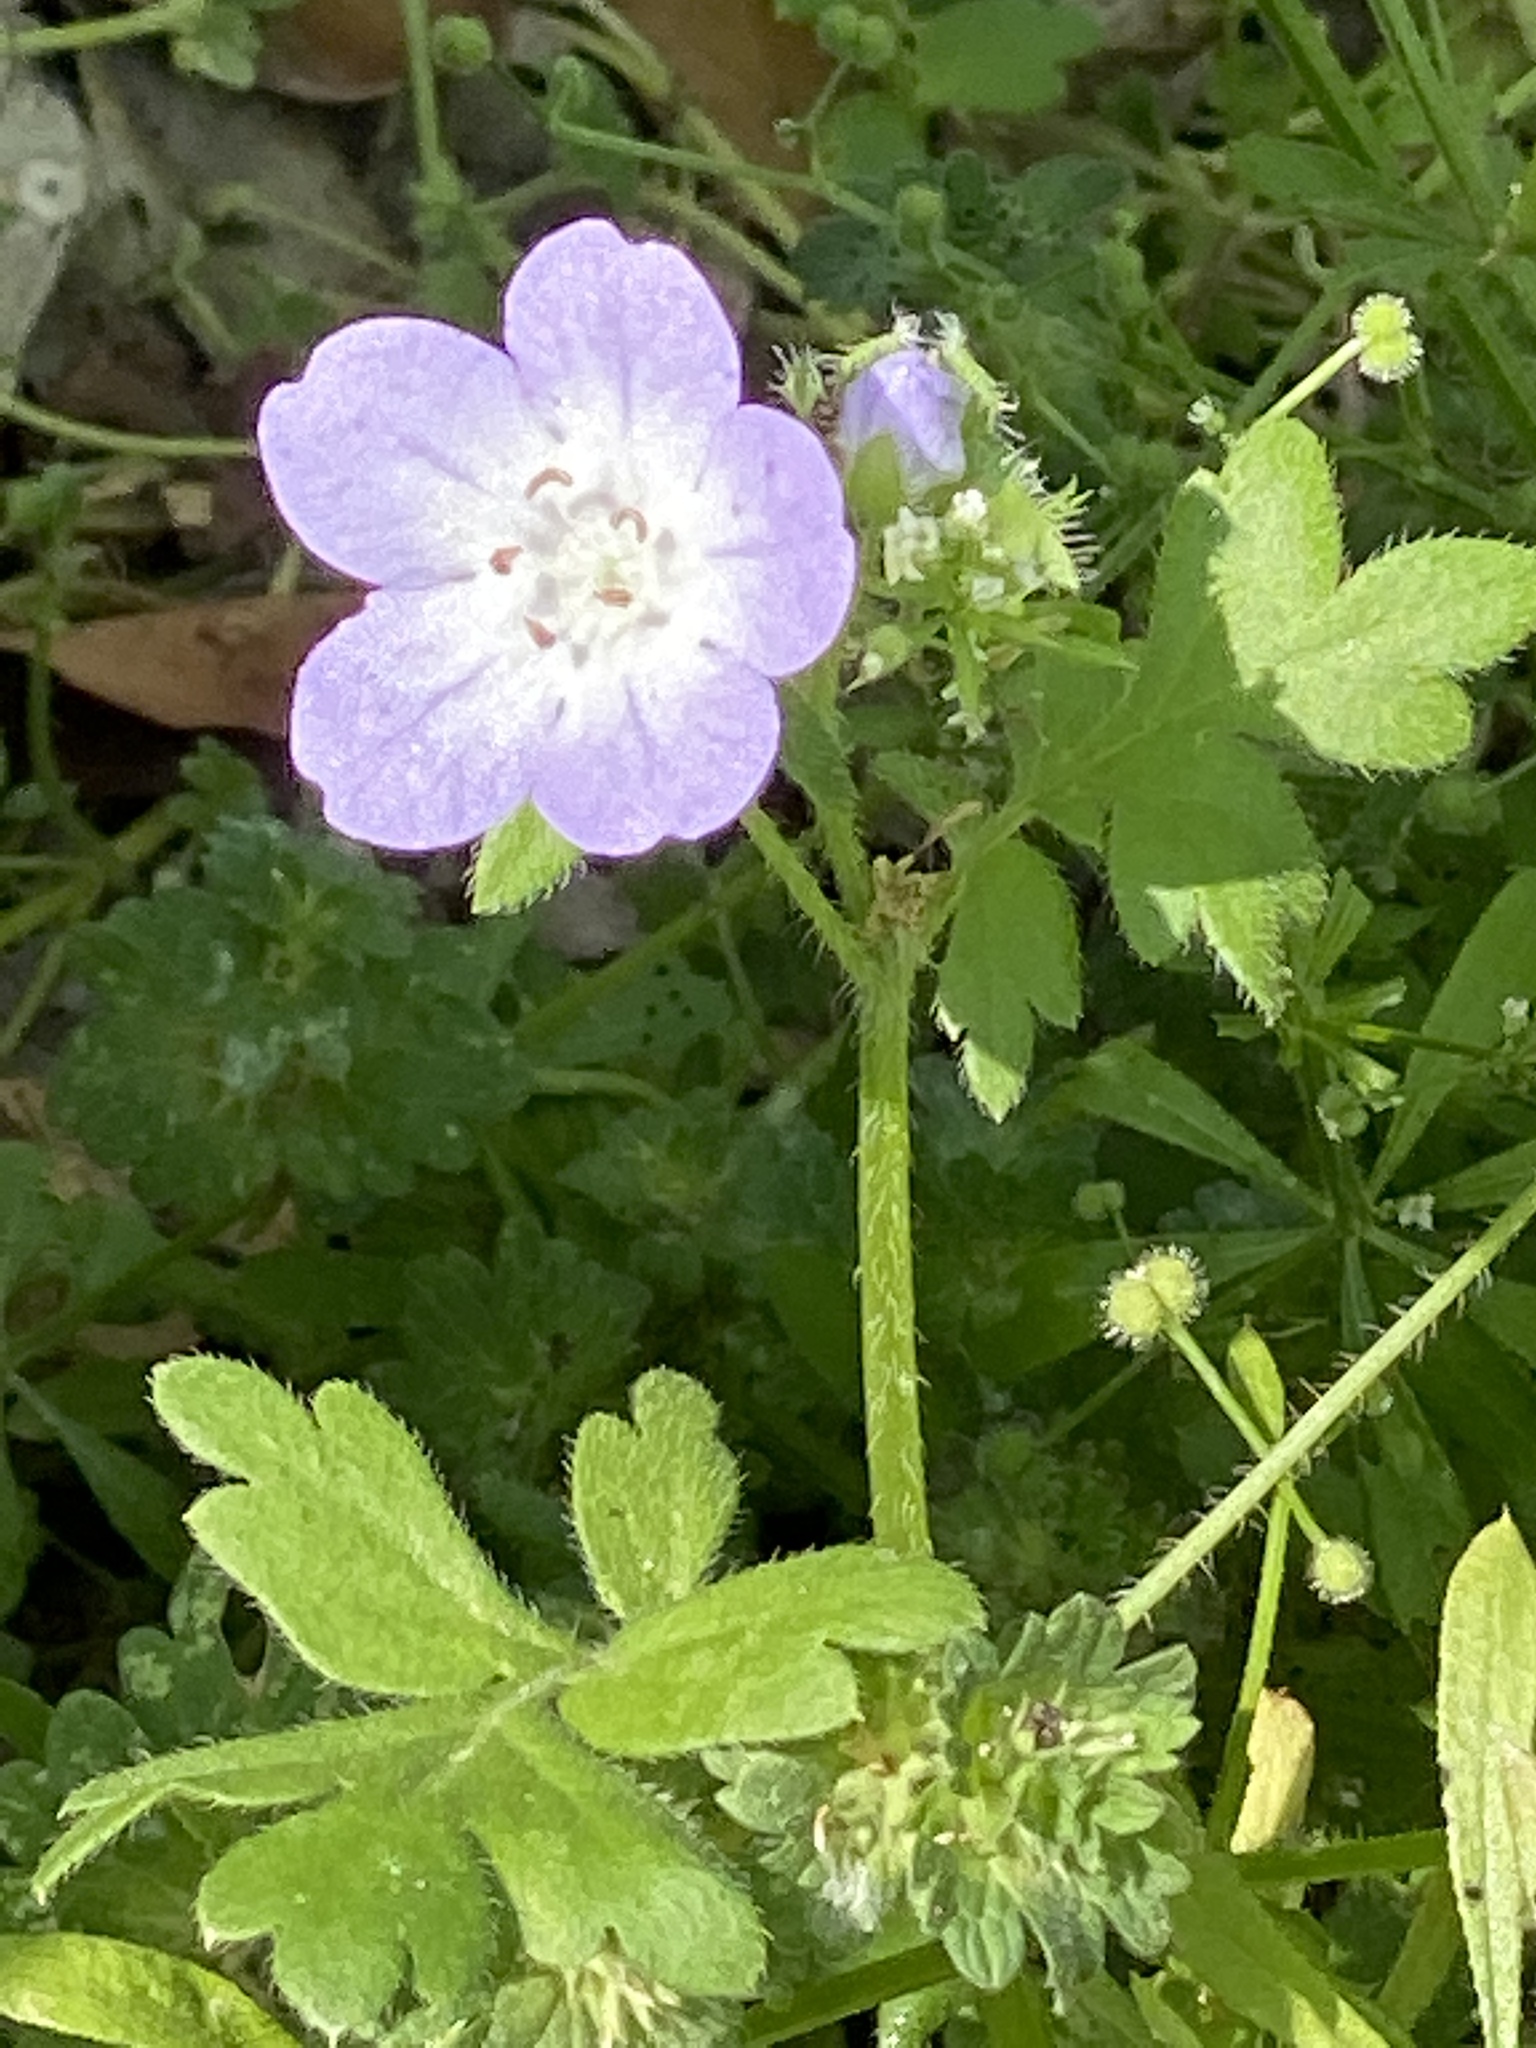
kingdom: Plantae
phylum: Tracheophyta
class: Magnoliopsida
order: Boraginales
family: Hydrophyllaceae
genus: Nemophila
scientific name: Nemophila phacelioides
